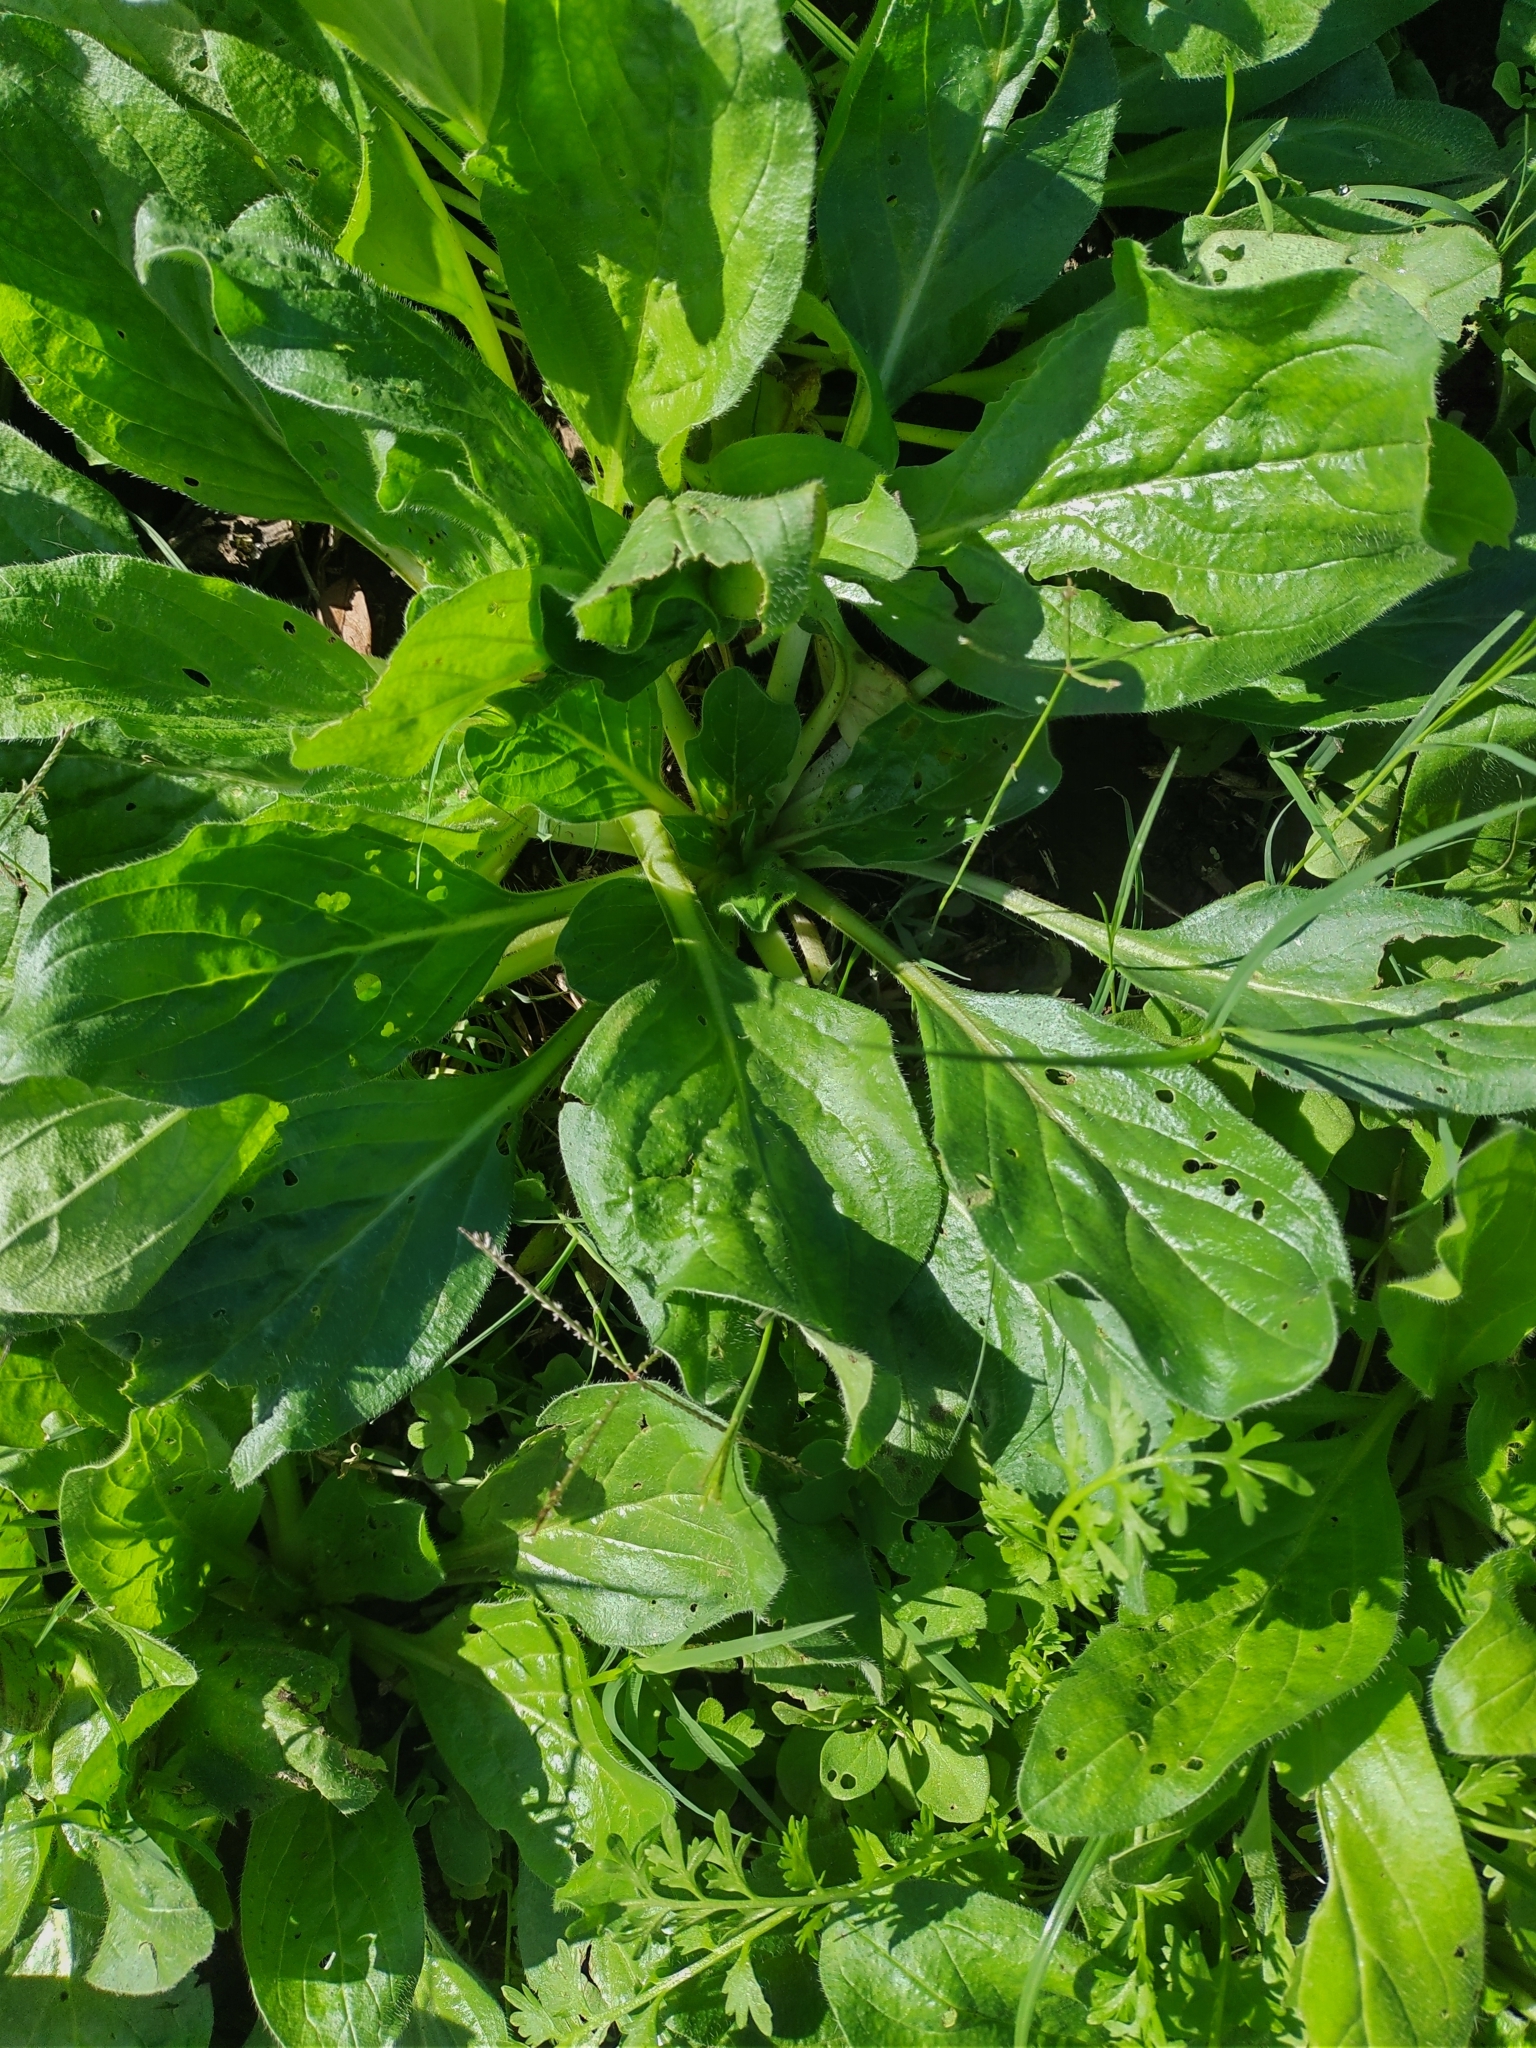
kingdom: Plantae
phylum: Tracheophyta
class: Magnoliopsida
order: Boraginales
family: Boraginaceae
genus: Echium
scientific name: Echium plantagineum
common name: Purple viper's-bugloss
